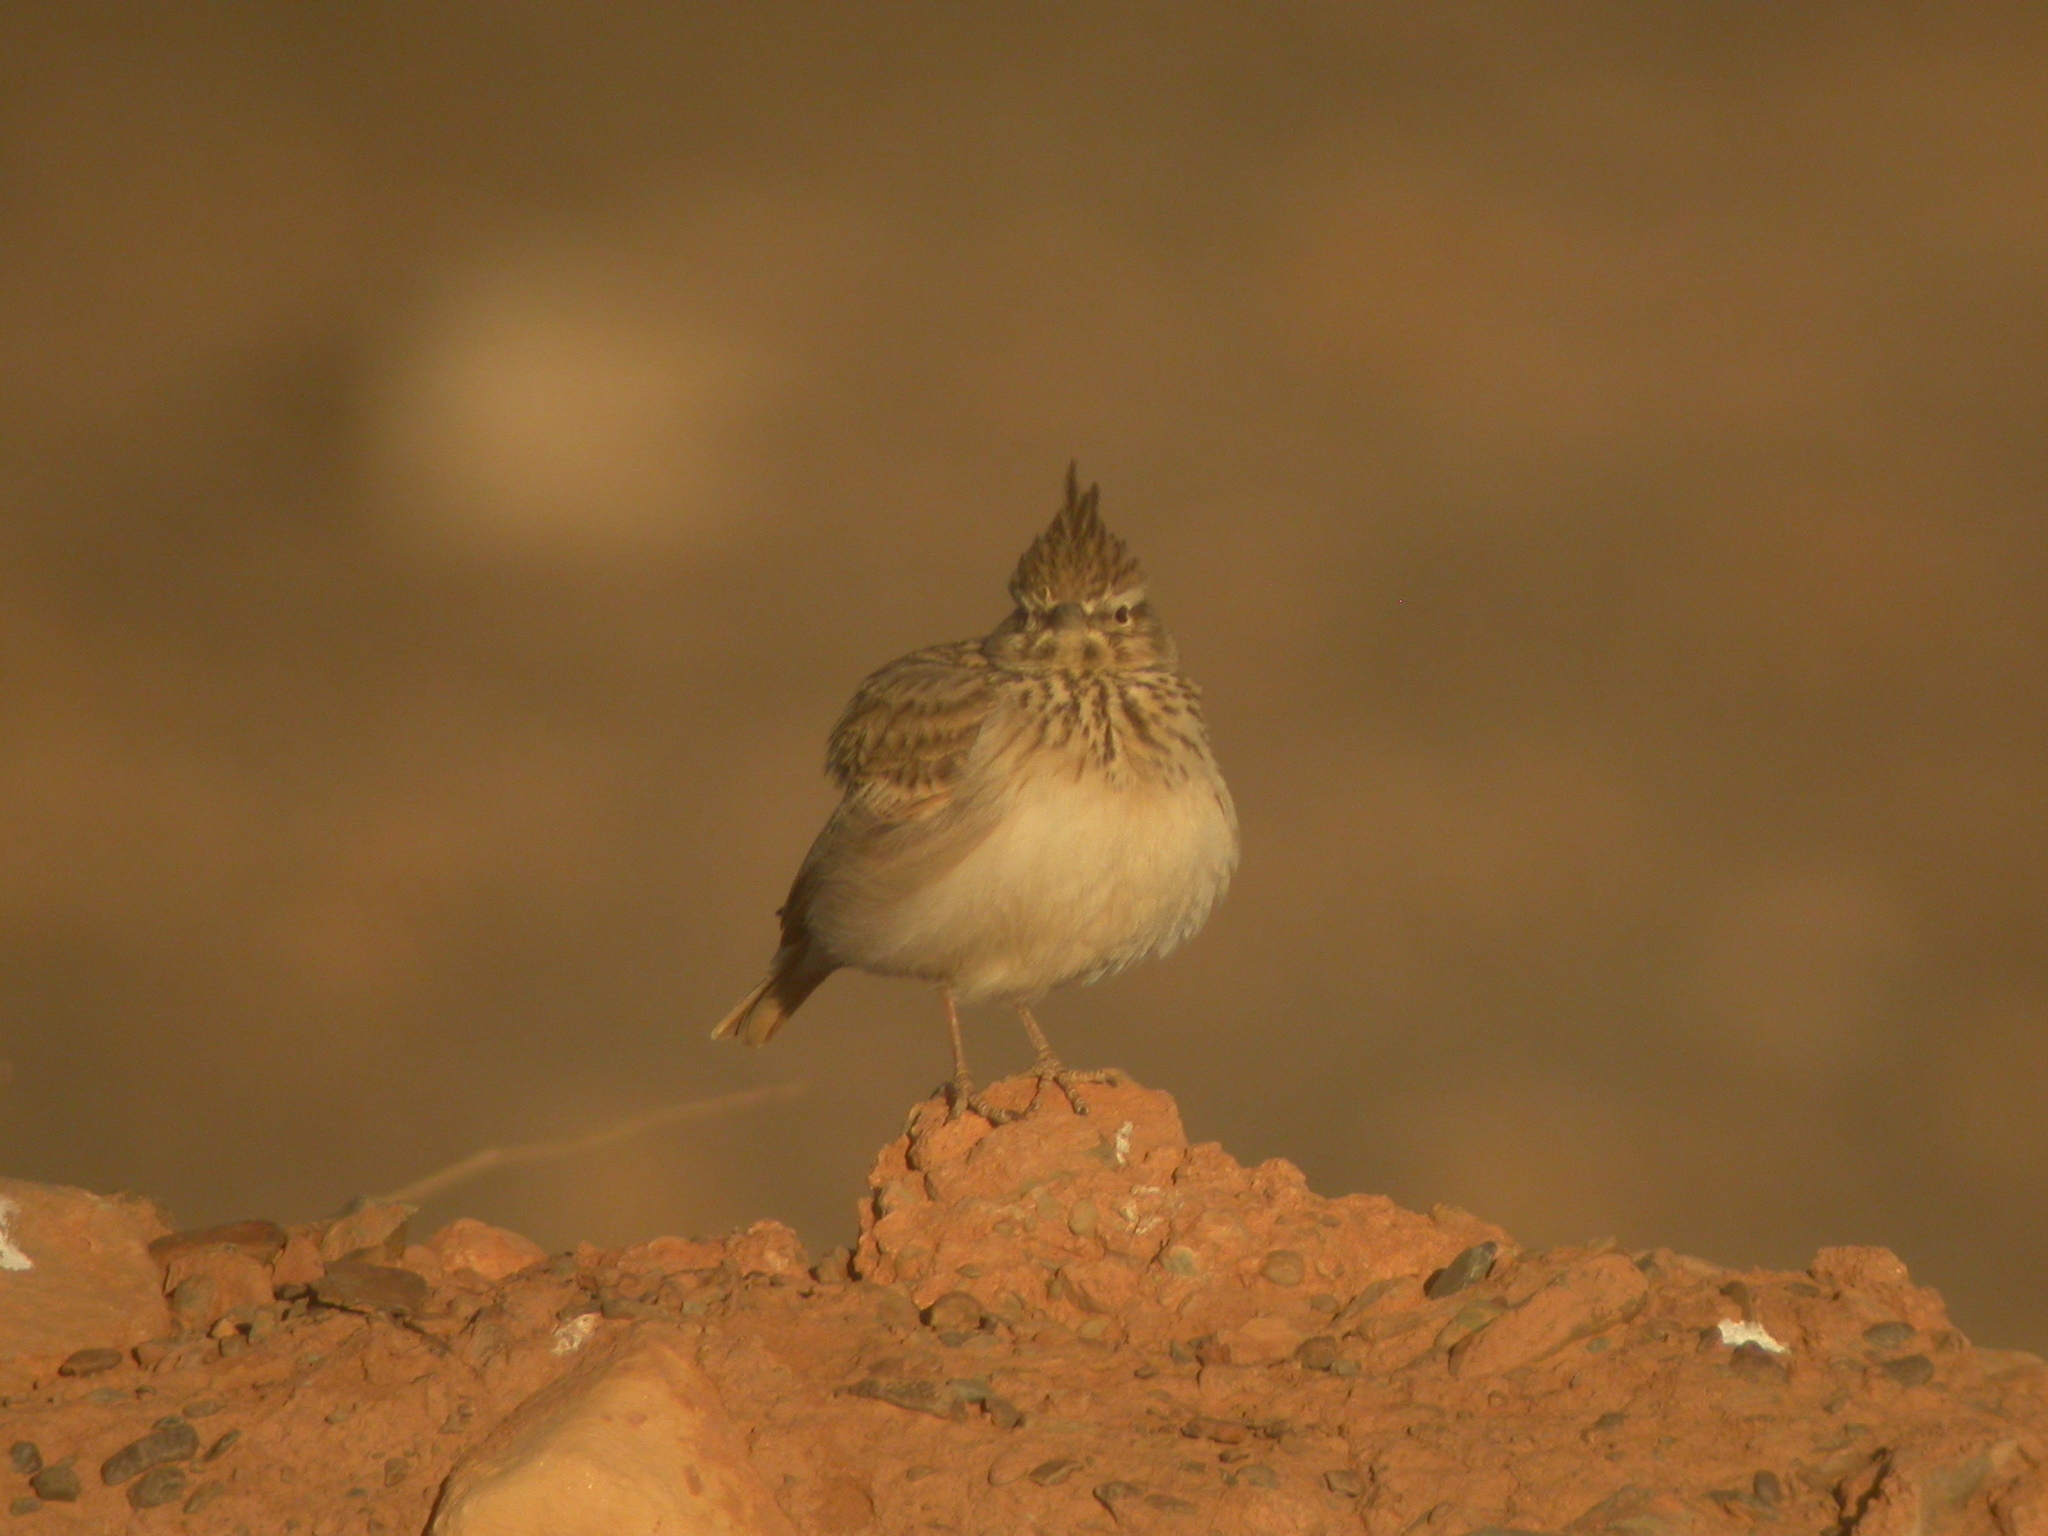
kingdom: Animalia
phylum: Chordata
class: Aves
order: Passeriformes
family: Alaudidae
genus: Galerida
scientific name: Galerida theklae
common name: Thekla lark
